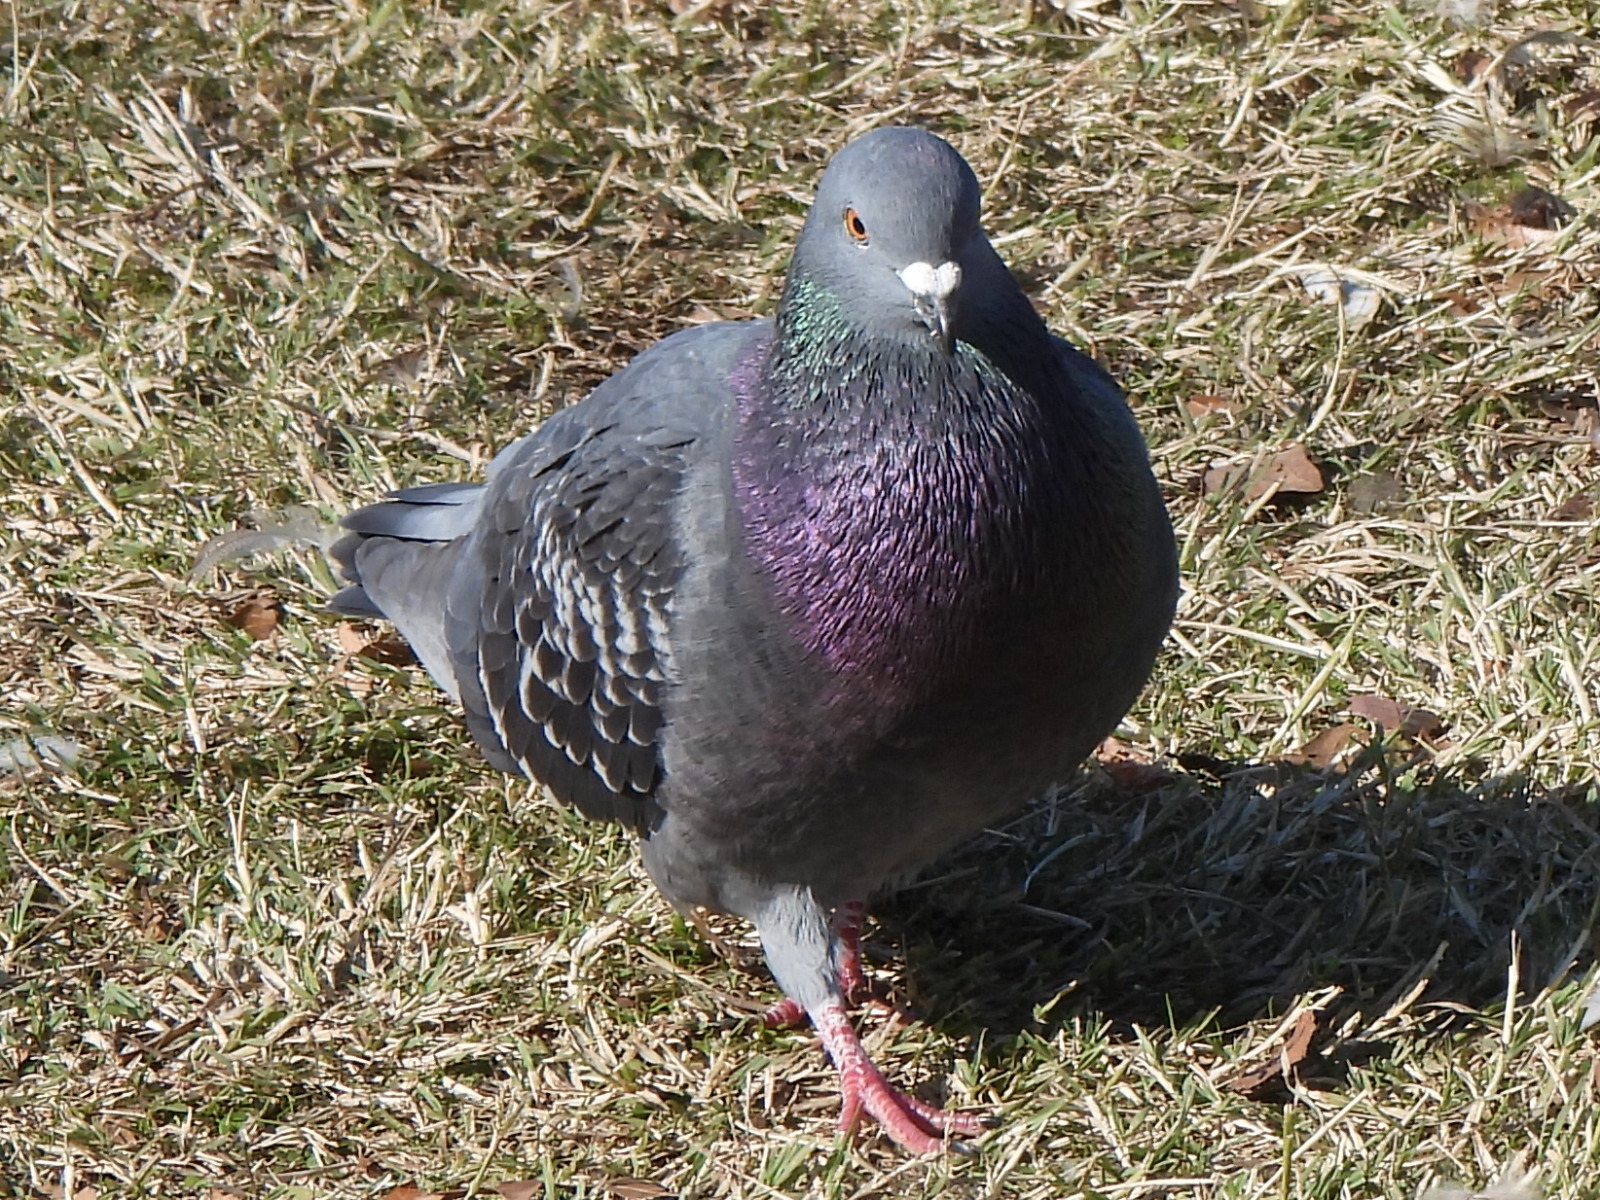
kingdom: Animalia
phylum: Chordata
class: Aves
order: Columbiformes
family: Columbidae
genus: Columba
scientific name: Columba livia
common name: Rock pigeon
